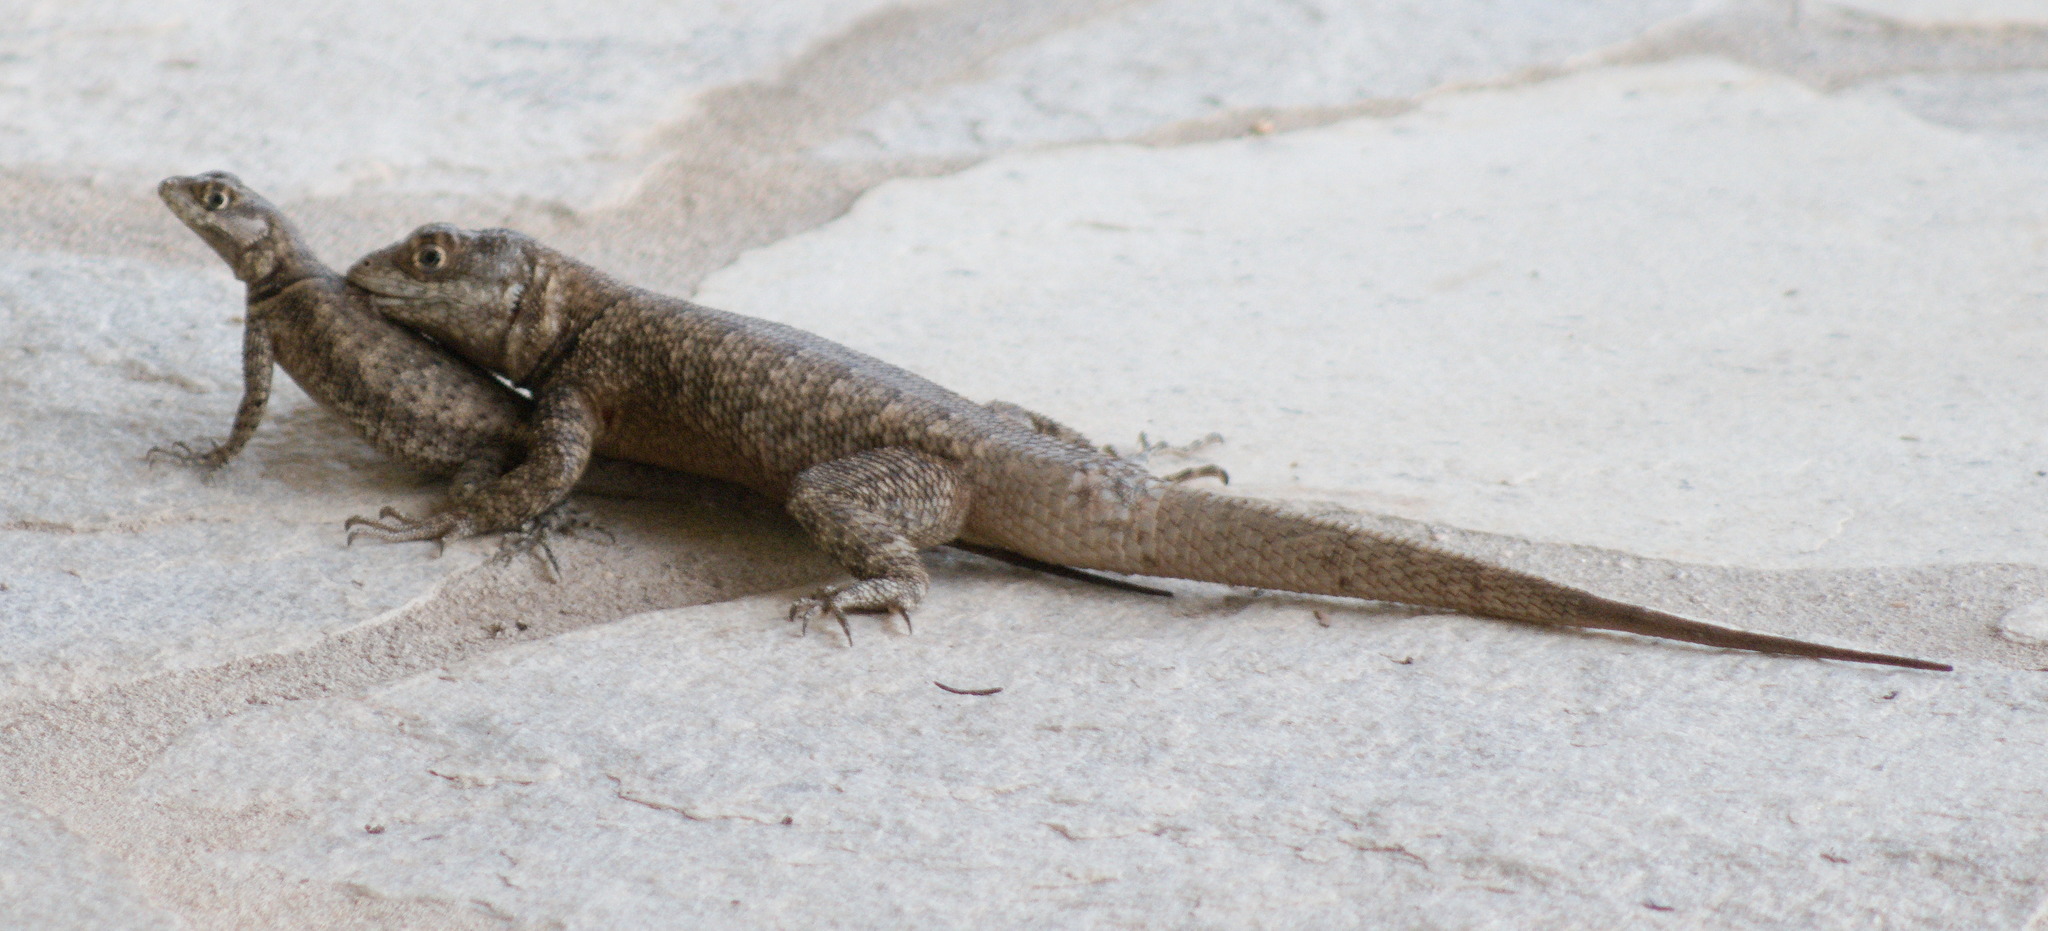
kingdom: Animalia
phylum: Chordata
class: Squamata
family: Tropiduridae
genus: Tropidurus
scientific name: Tropidurus hispidus
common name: Peters' lava lizard
